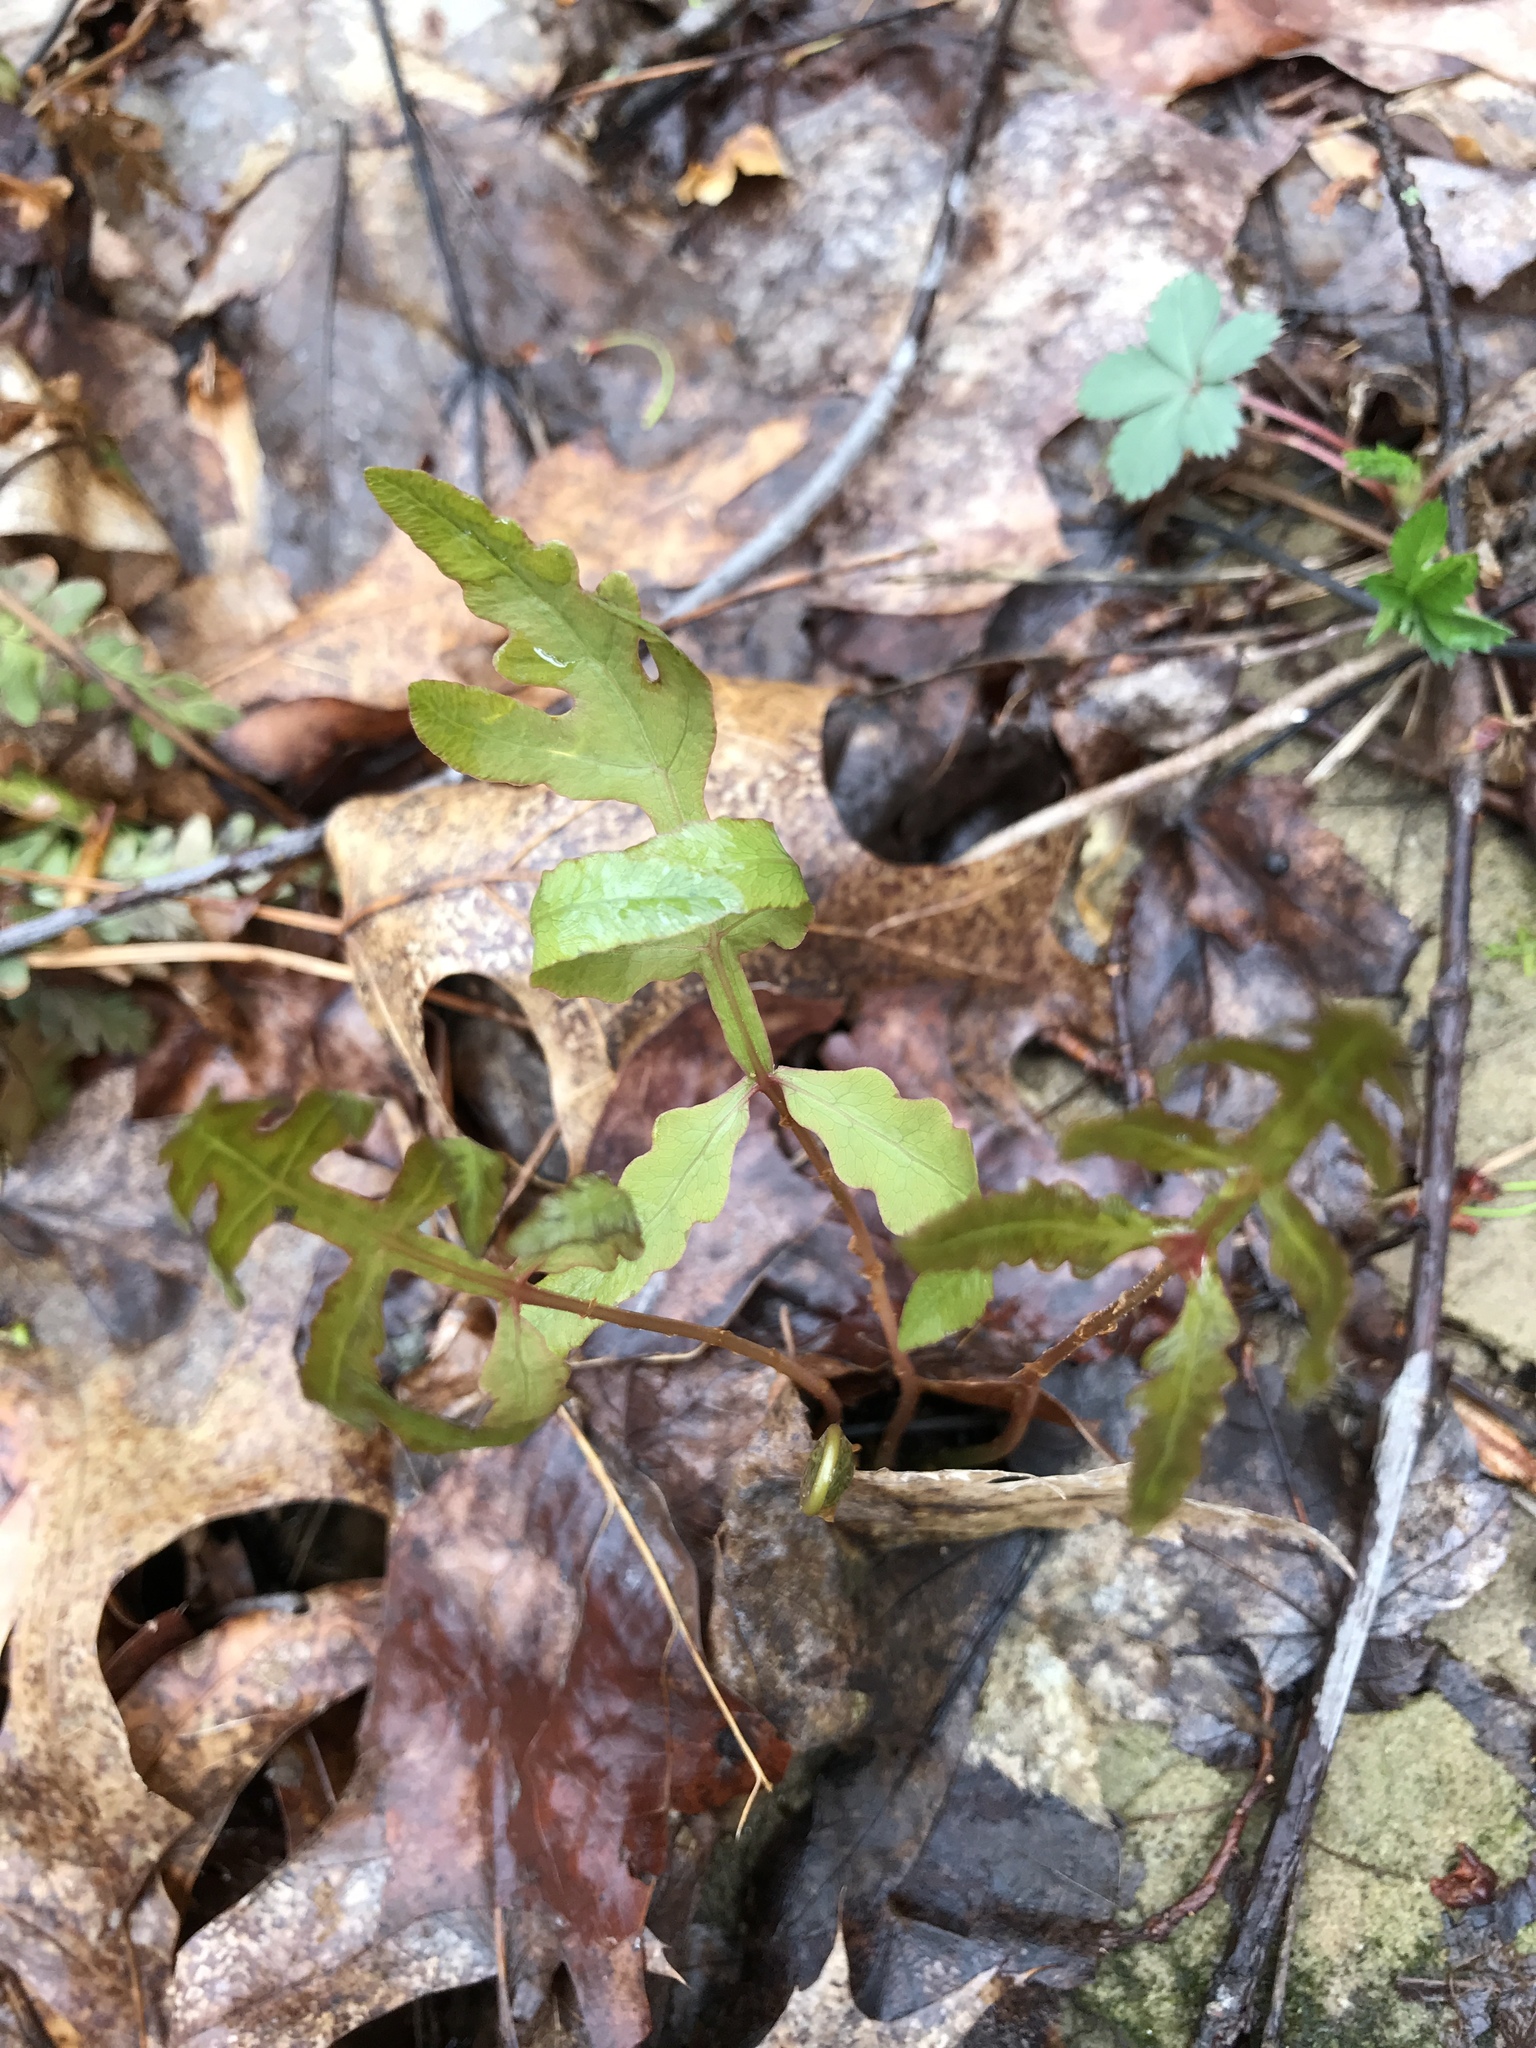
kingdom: Plantae
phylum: Tracheophyta
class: Polypodiopsida
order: Polypodiales
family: Onocleaceae
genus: Onoclea
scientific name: Onoclea sensibilis
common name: Sensitive fern
